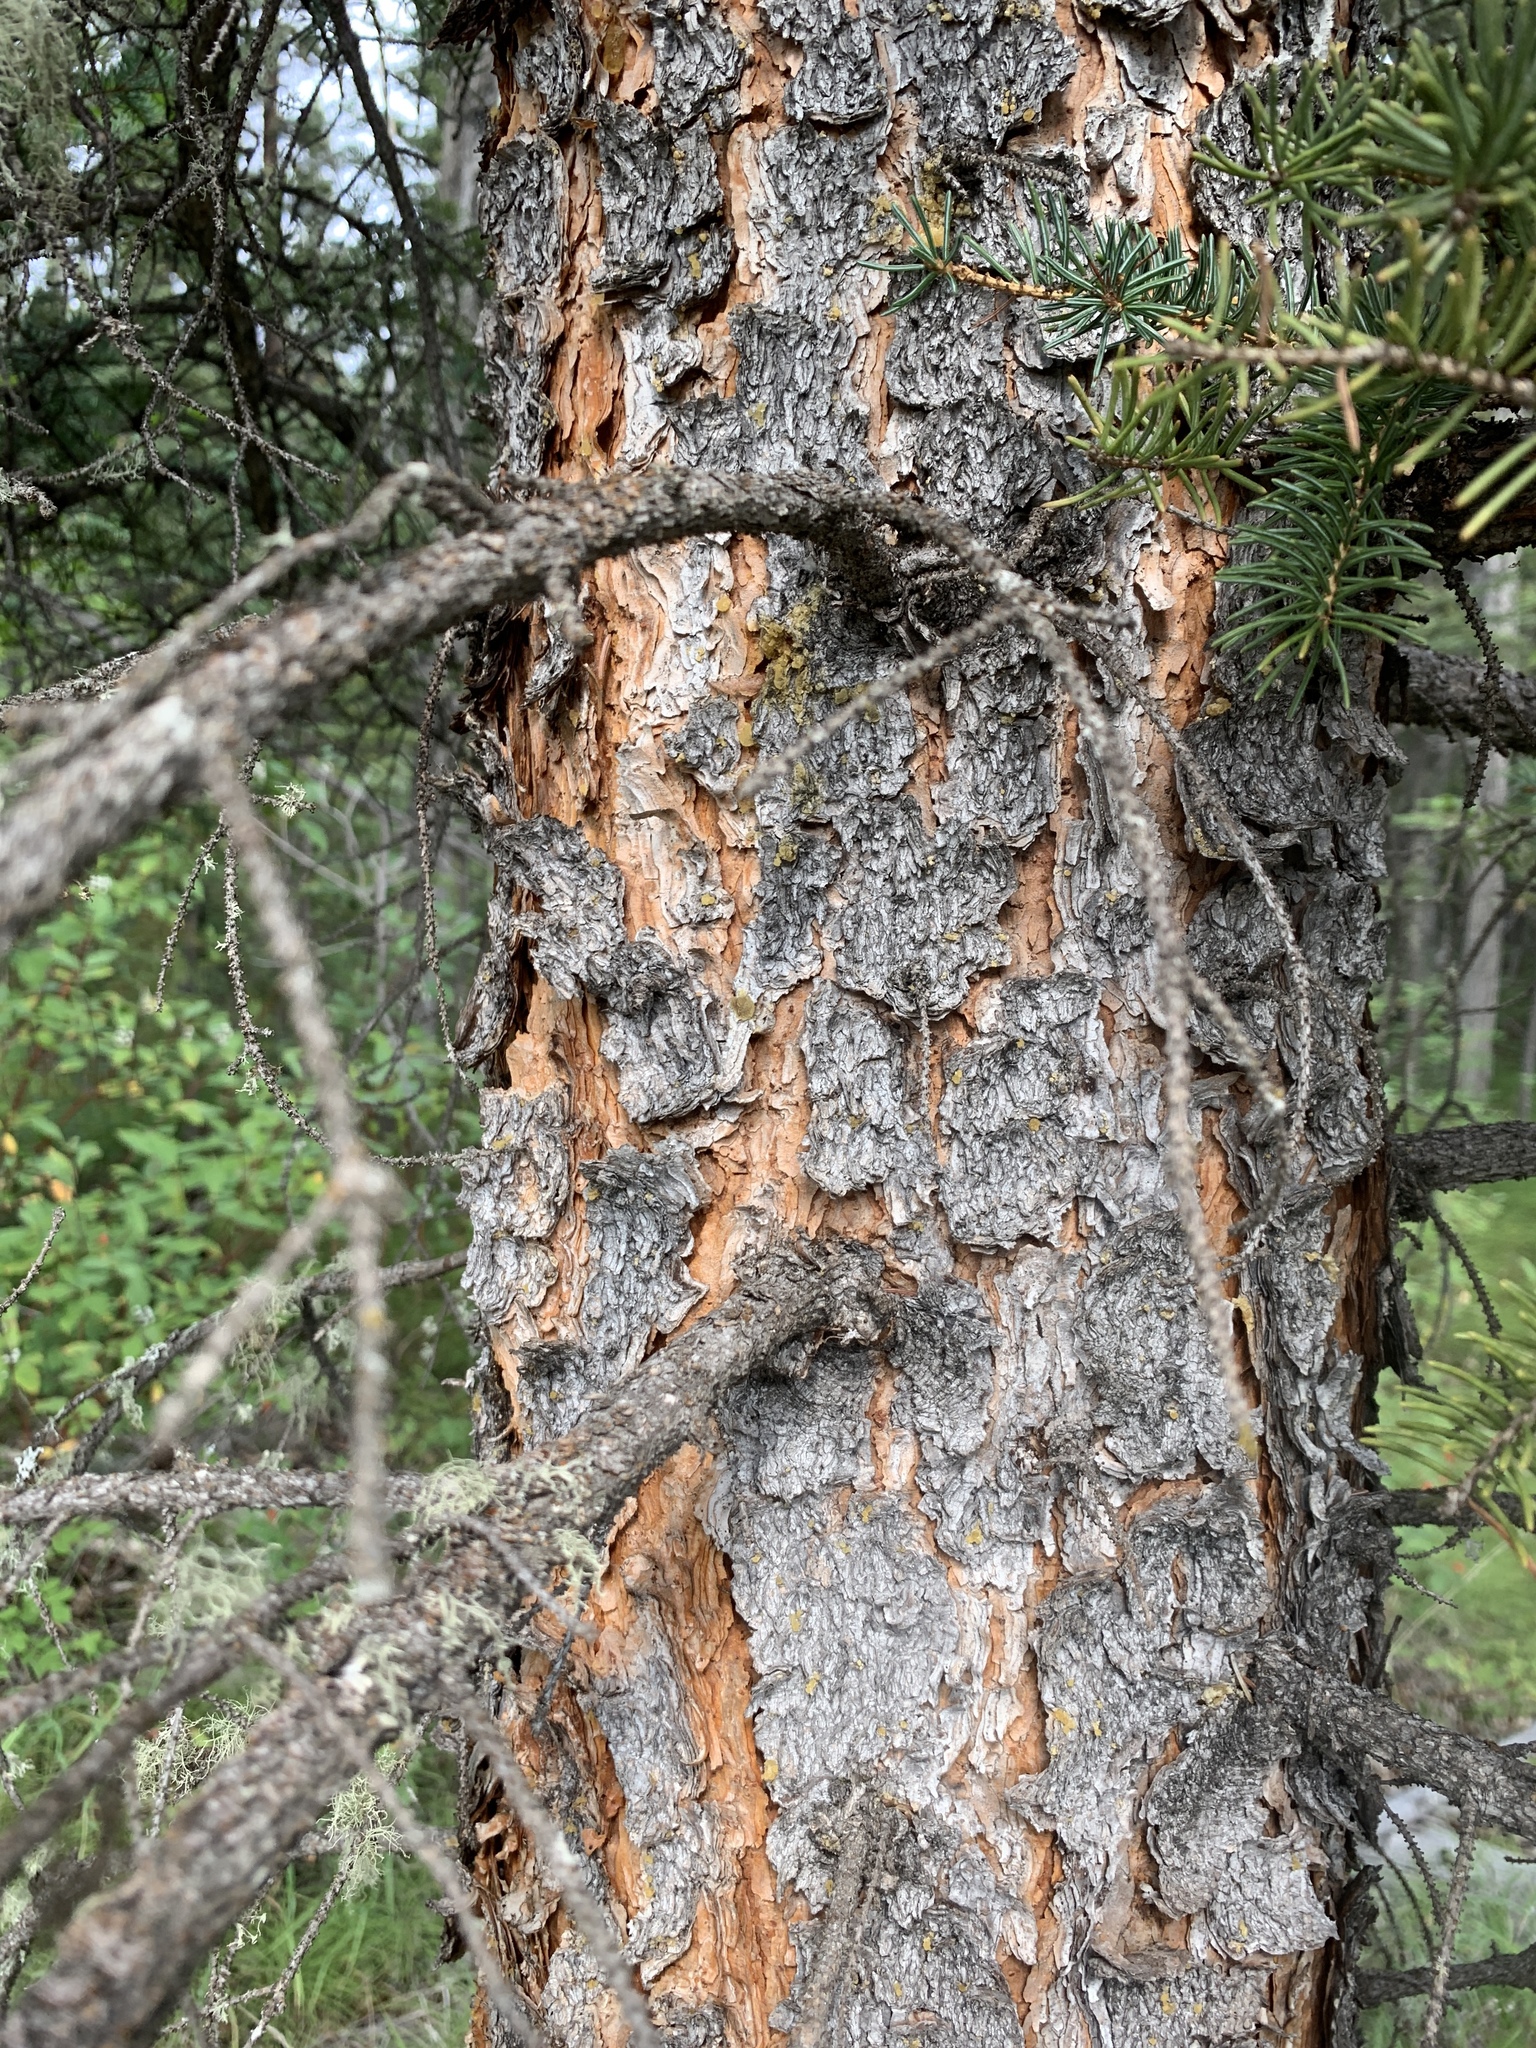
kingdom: Plantae
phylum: Tracheophyta
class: Pinopsida
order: Pinales
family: Pinaceae
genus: Picea
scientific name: Picea glauca
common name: White spruce
